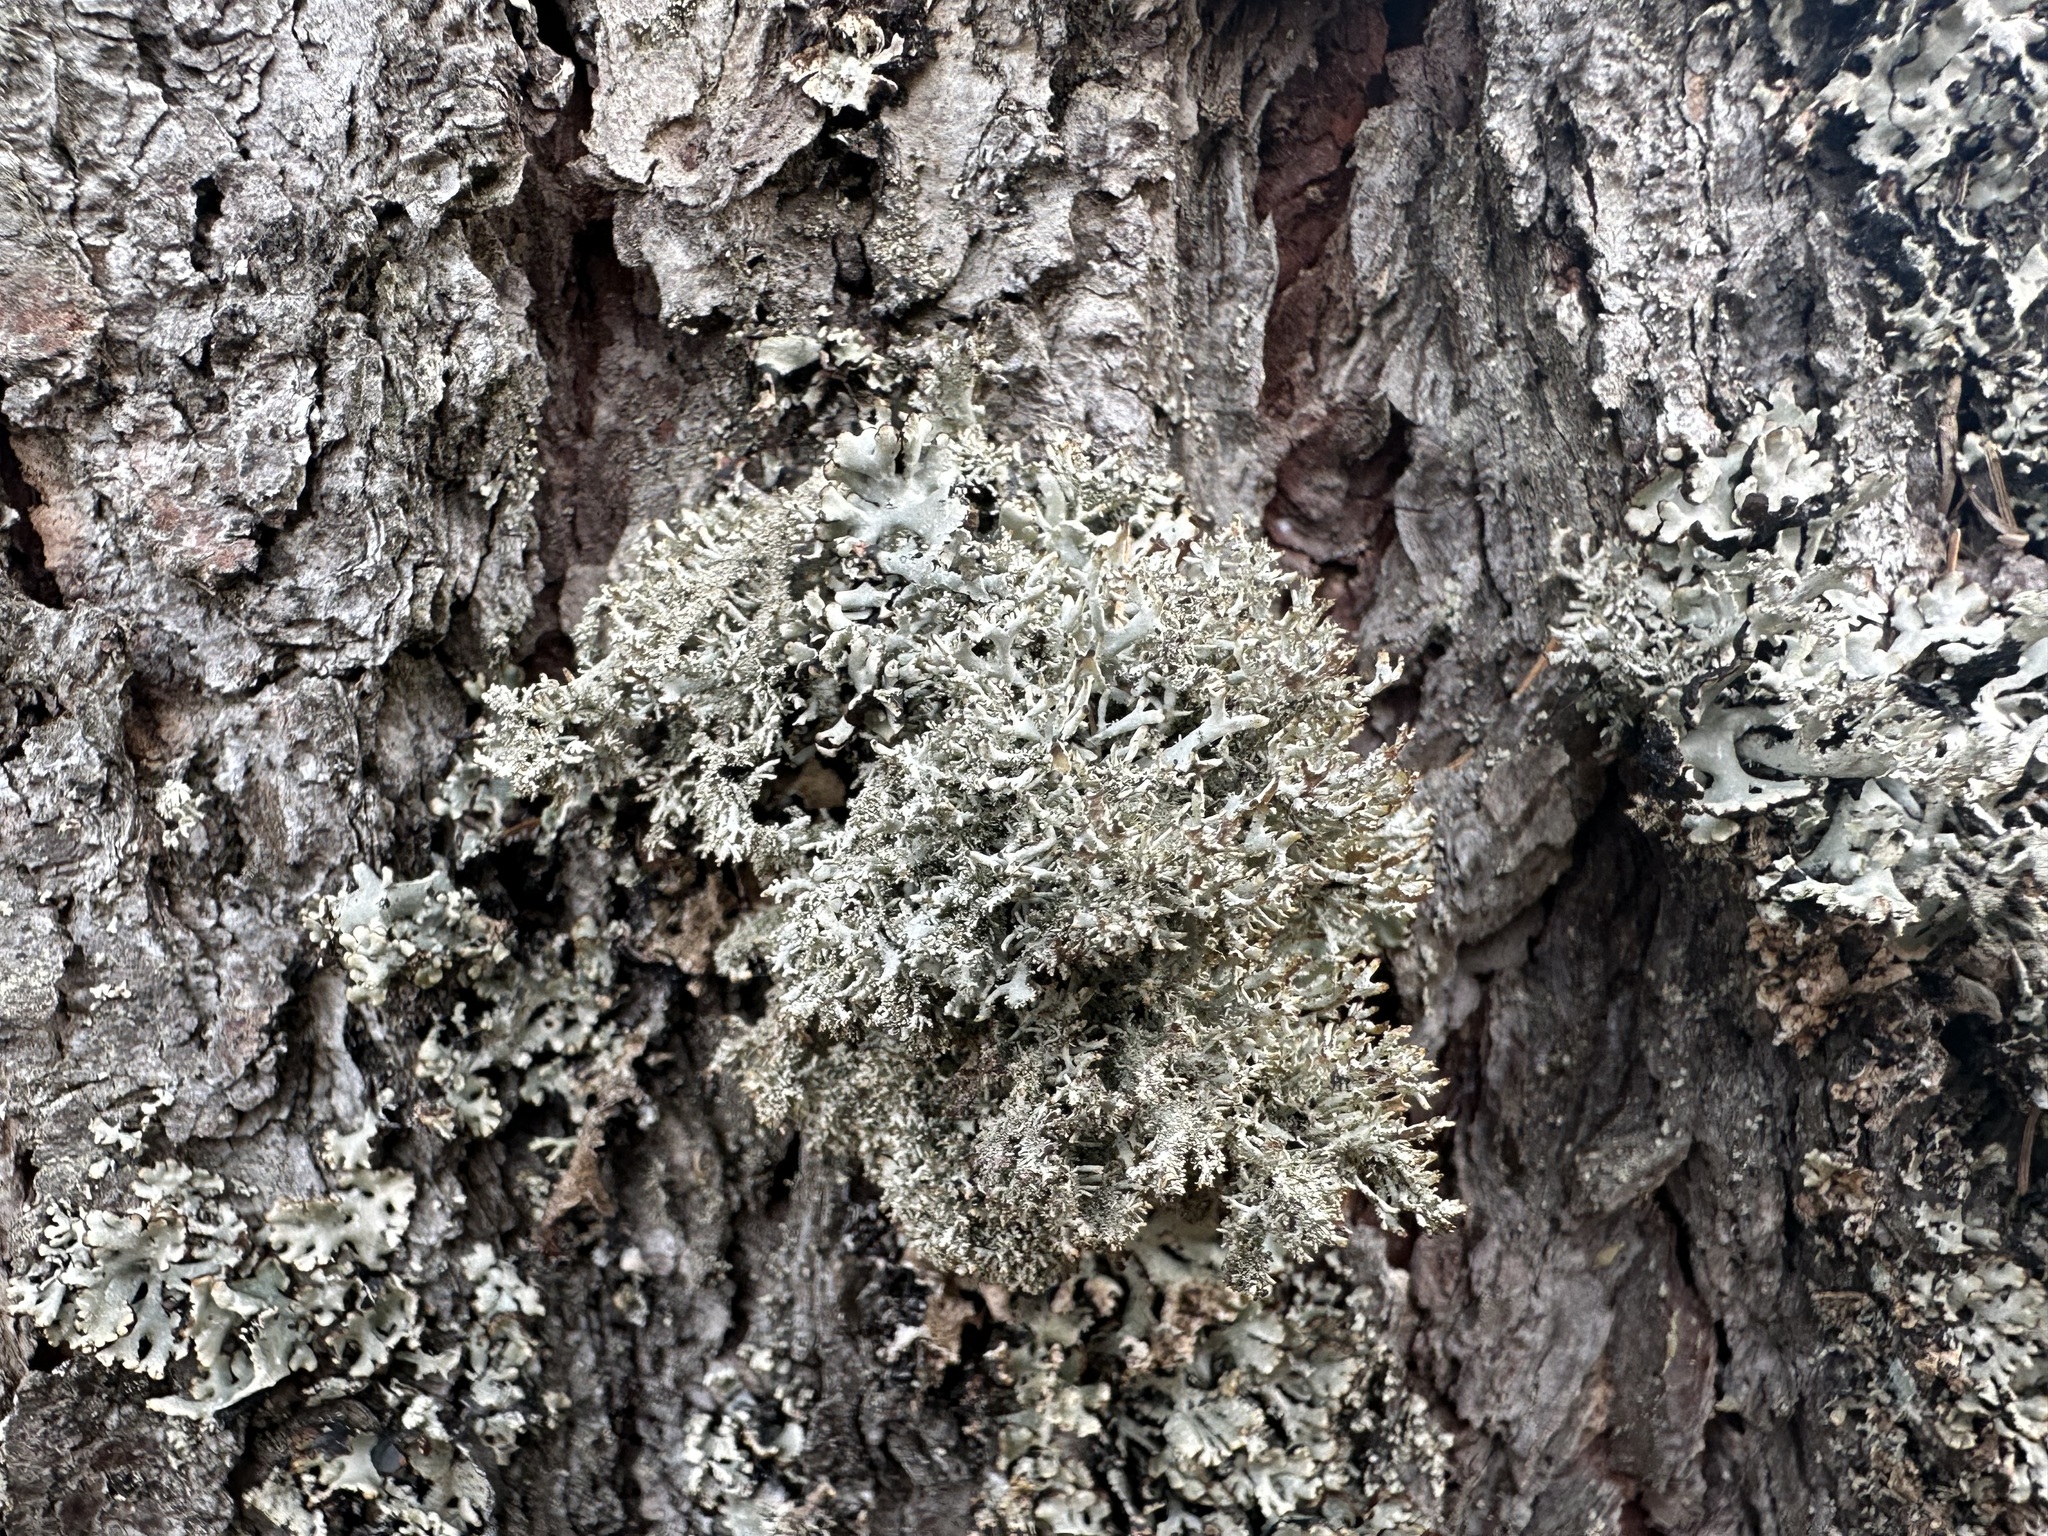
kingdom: Fungi
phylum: Ascomycota
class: Lecanoromycetes
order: Lecanorales
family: Parmeliaceae
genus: Pseudevernia
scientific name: Pseudevernia furfuracea
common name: Tree moss
